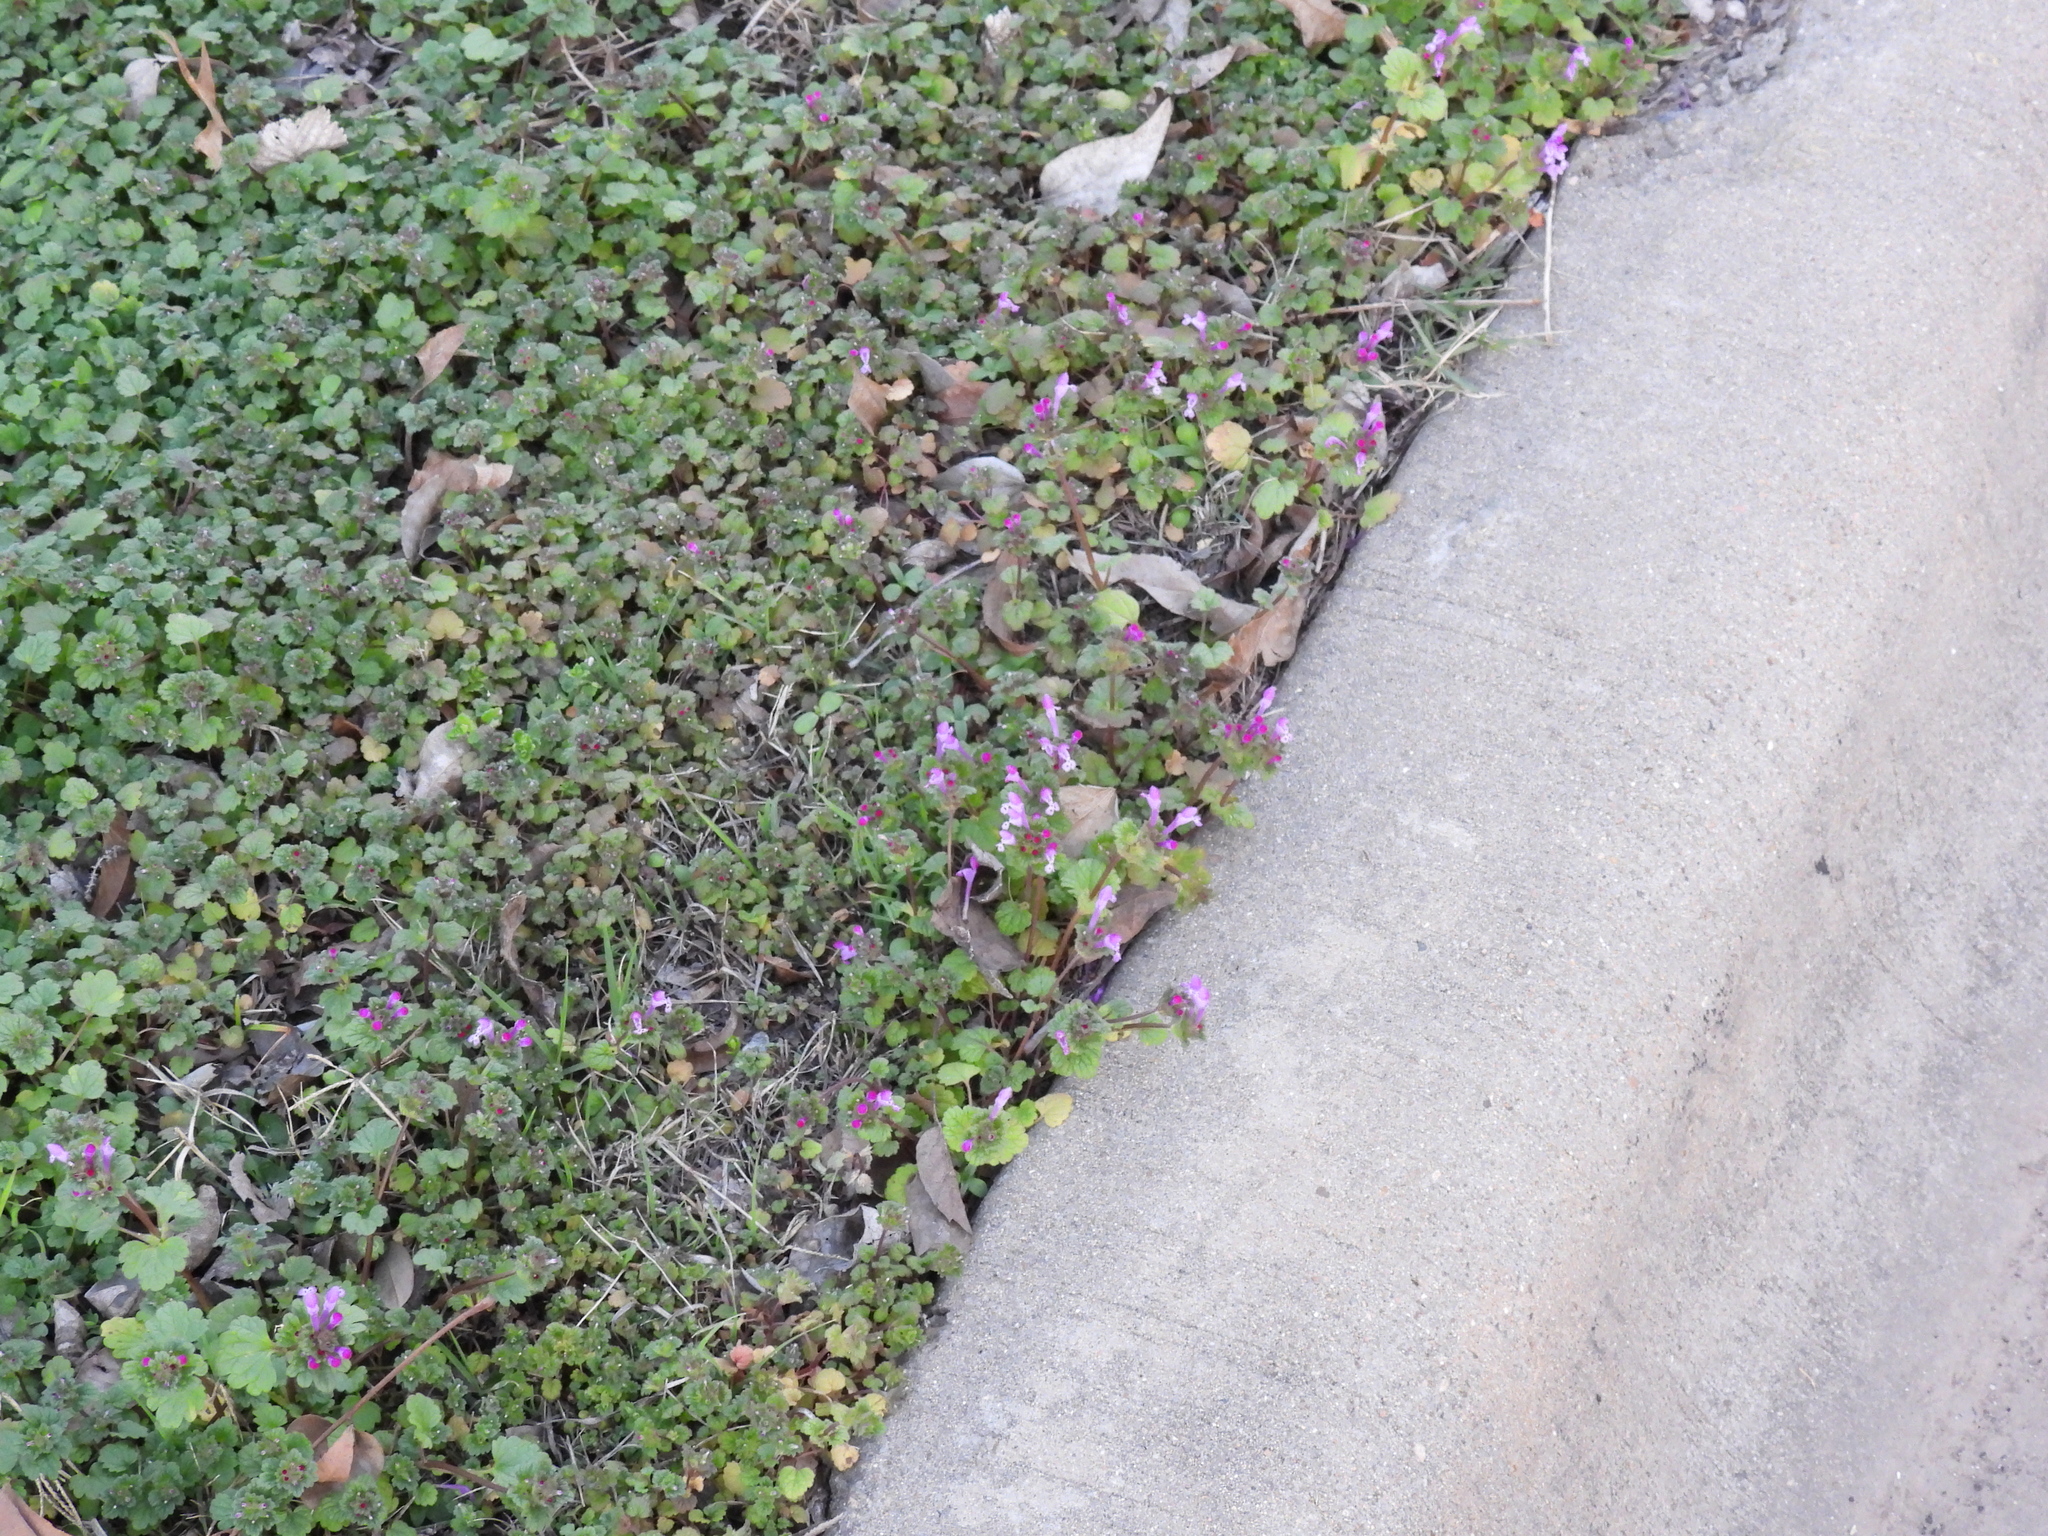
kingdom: Plantae
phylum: Tracheophyta
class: Magnoliopsida
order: Lamiales
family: Lamiaceae
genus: Lamium
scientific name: Lamium amplexicaule
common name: Henbit dead-nettle
